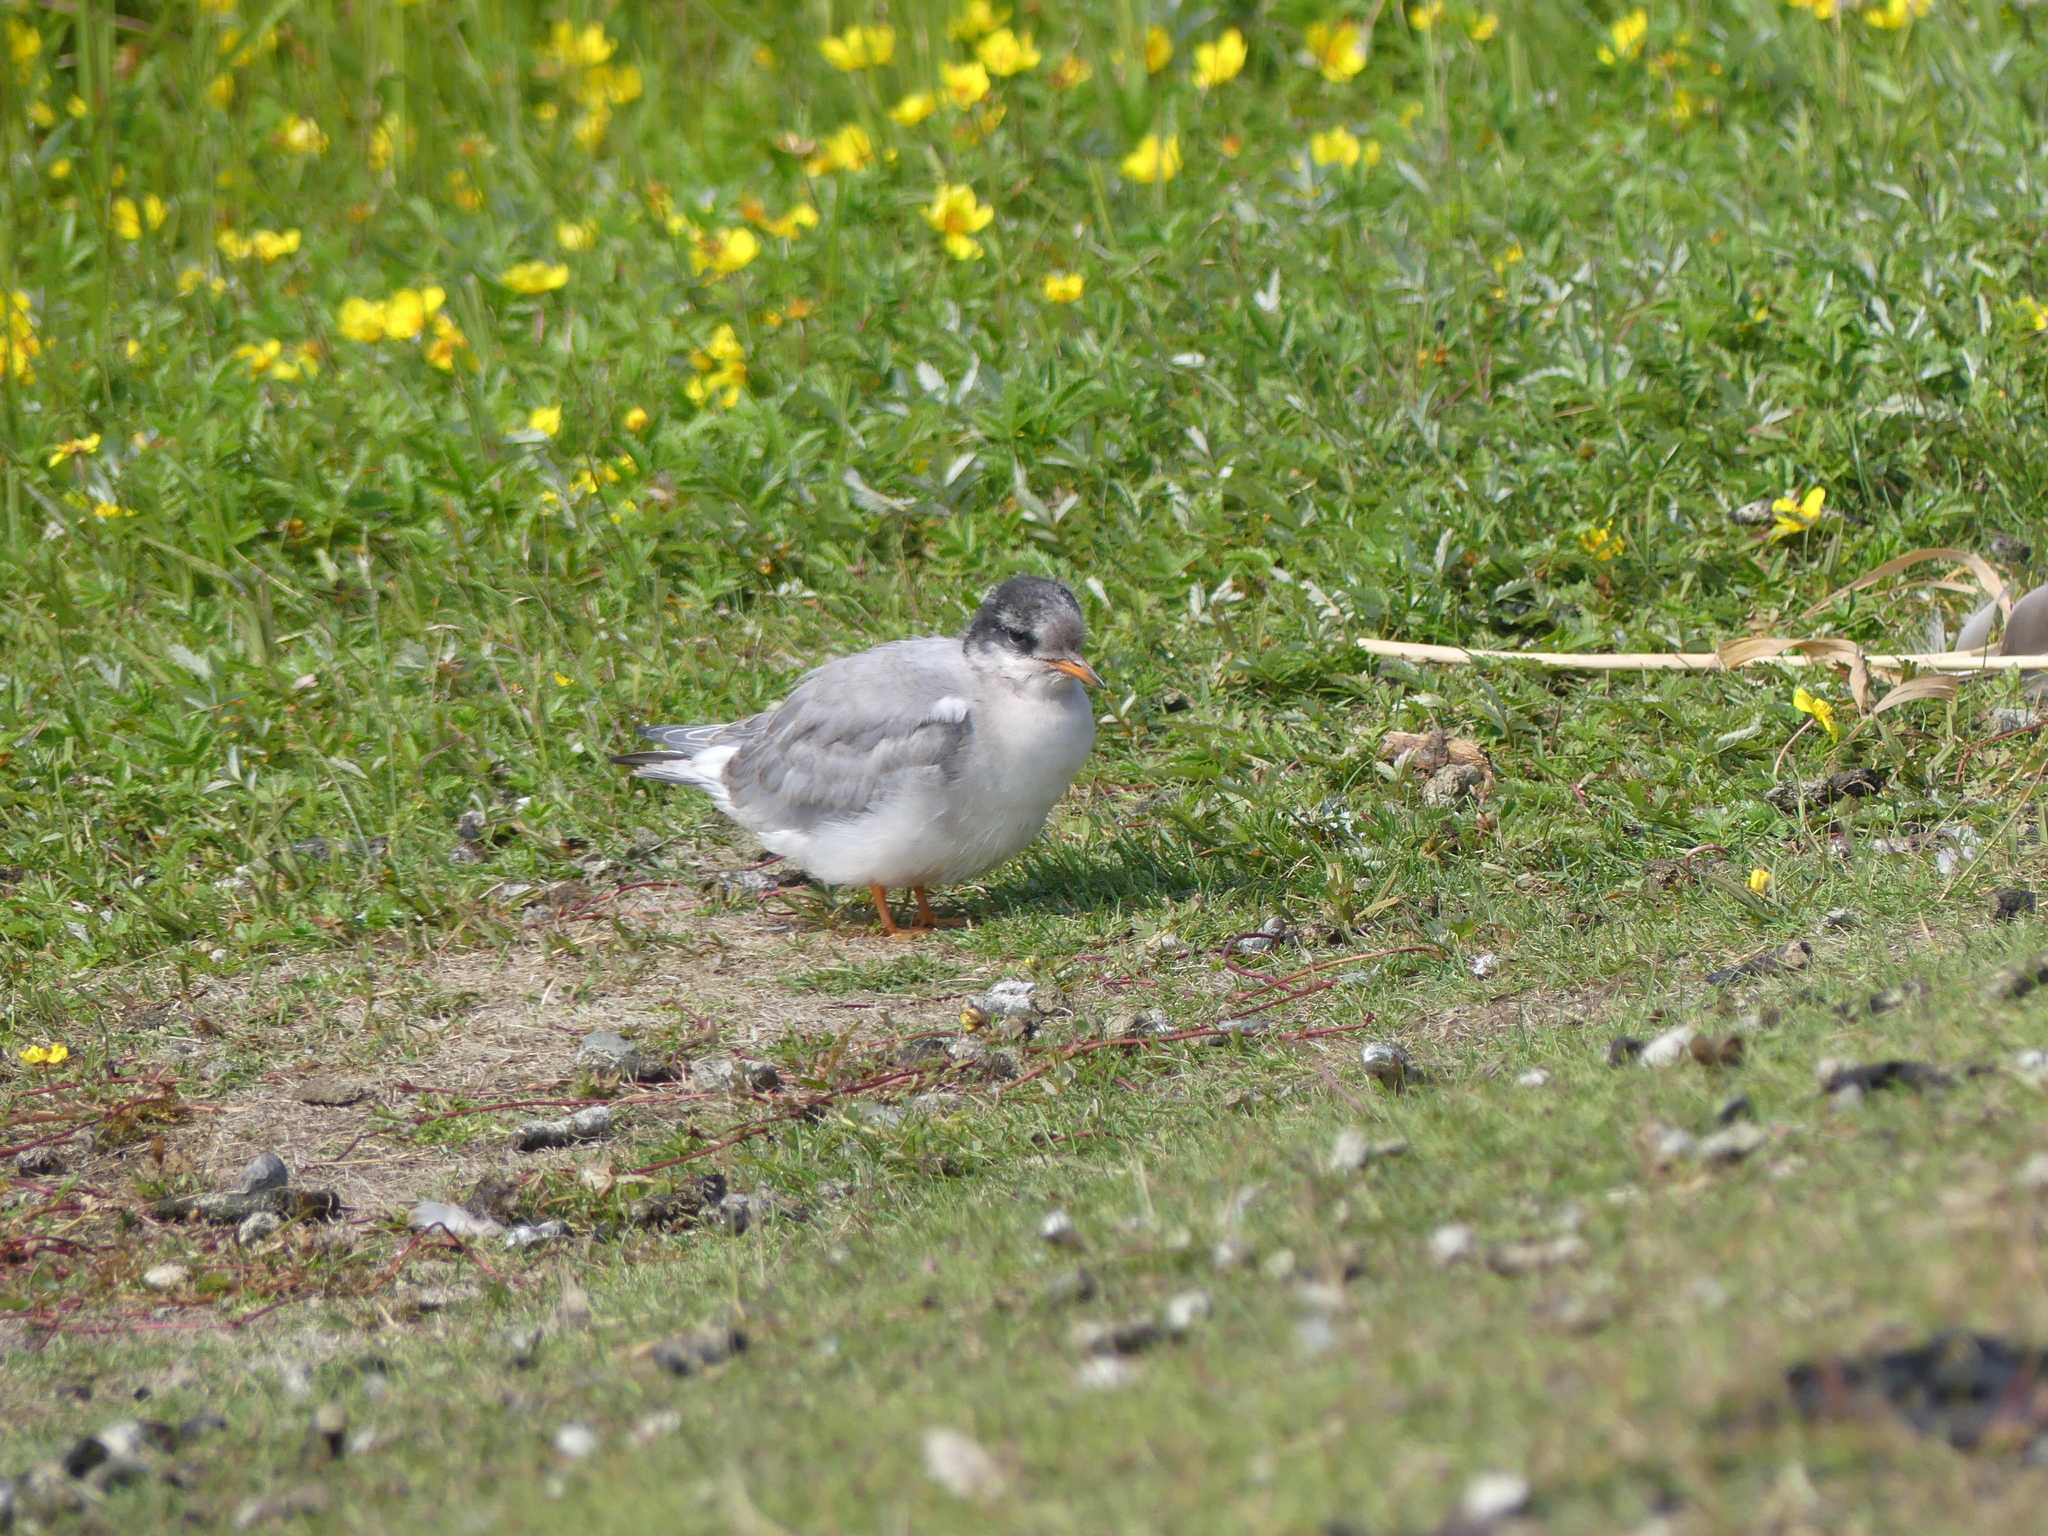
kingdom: Animalia
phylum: Chordata
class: Aves
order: Charadriiformes
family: Laridae
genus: Sterna
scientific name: Sterna paradisaea
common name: Arctic tern
